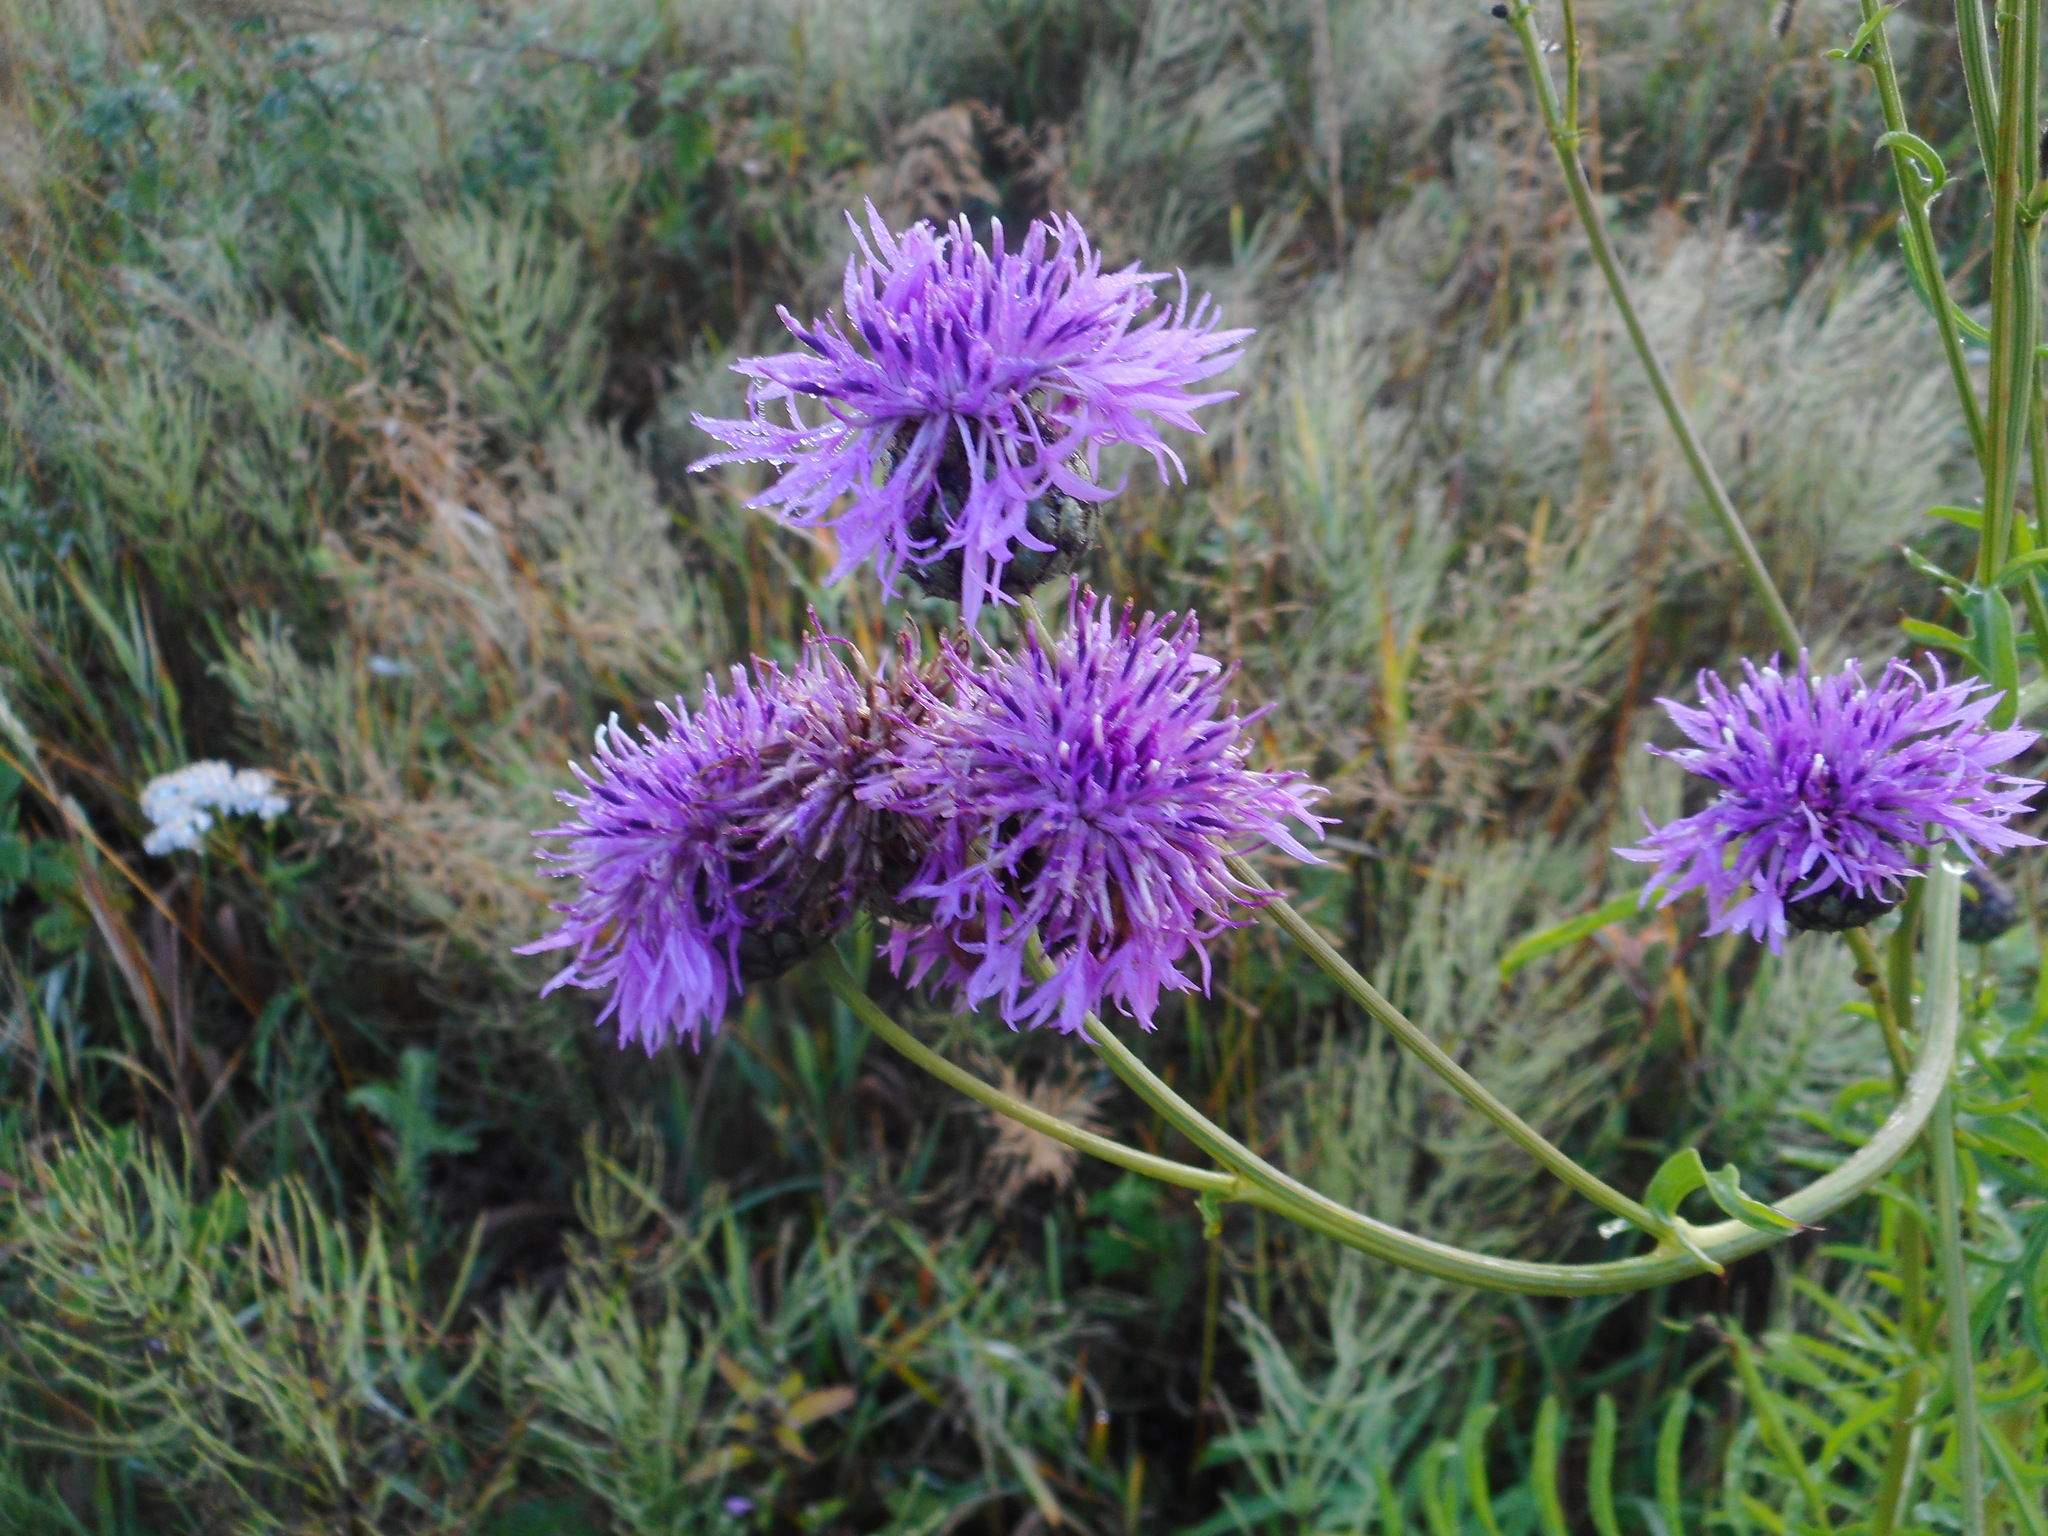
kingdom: Plantae
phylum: Tracheophyta
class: Magnoliopsida
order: Asterales
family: Asteraceae
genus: Centaurea
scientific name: Centaurea scabiosa
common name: Greater knapweed
